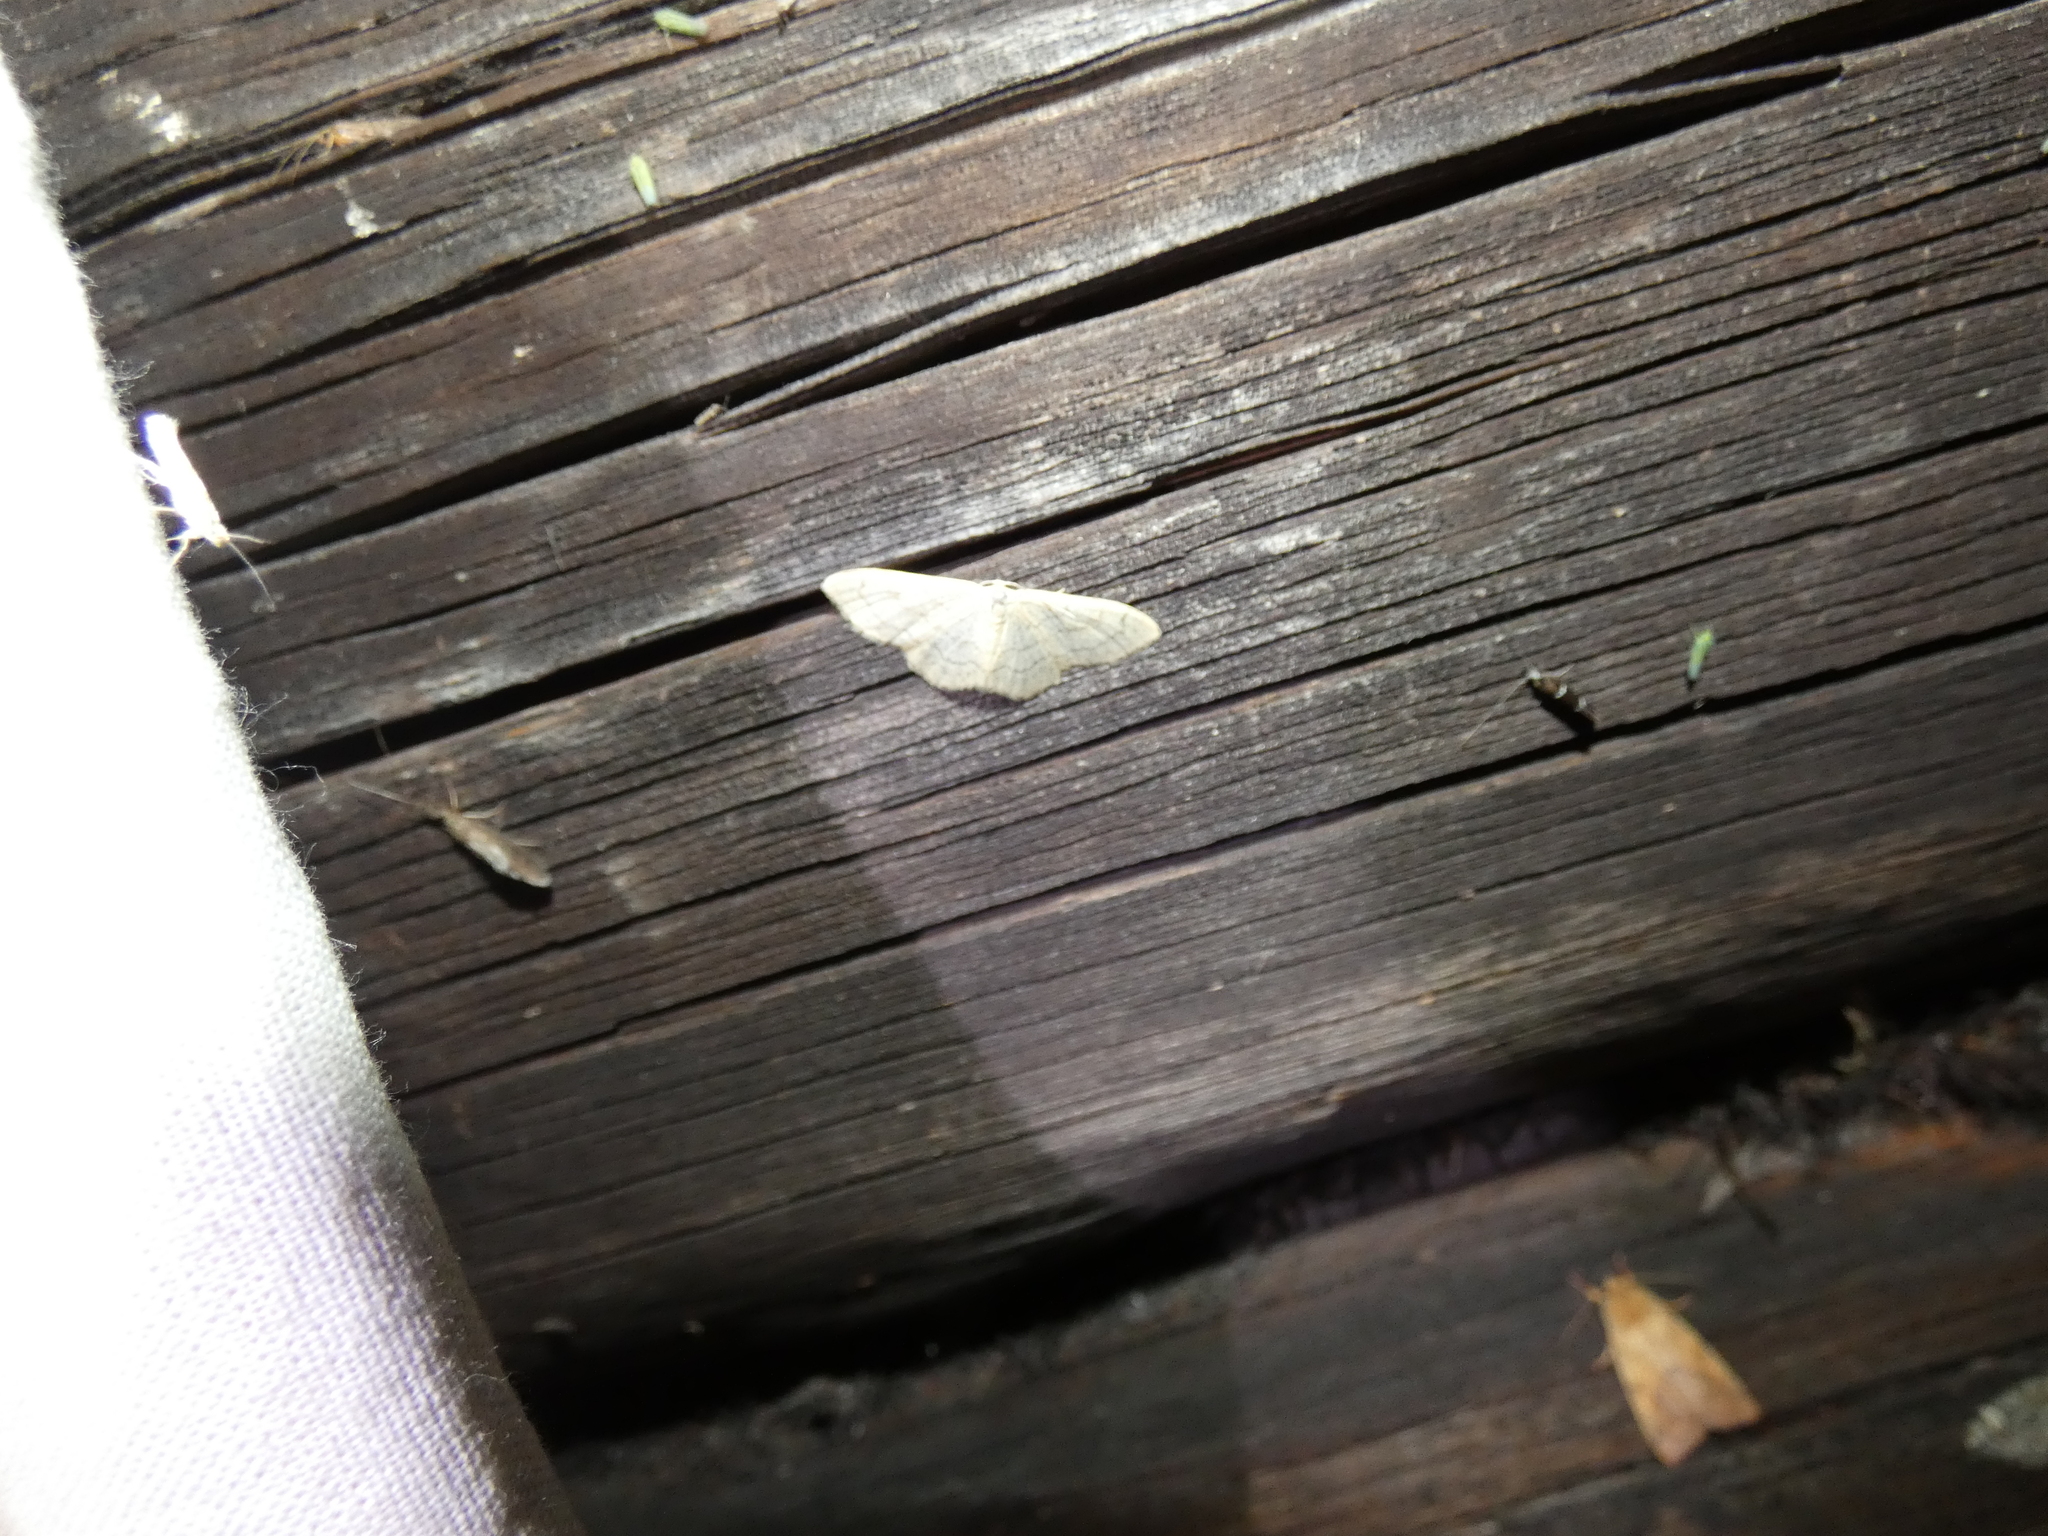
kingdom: Animalia
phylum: Arthropoda
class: Insecta
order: Lepidoptera
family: Geometridae
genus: Idaea
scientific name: Idaea aversata
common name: Riband wave
